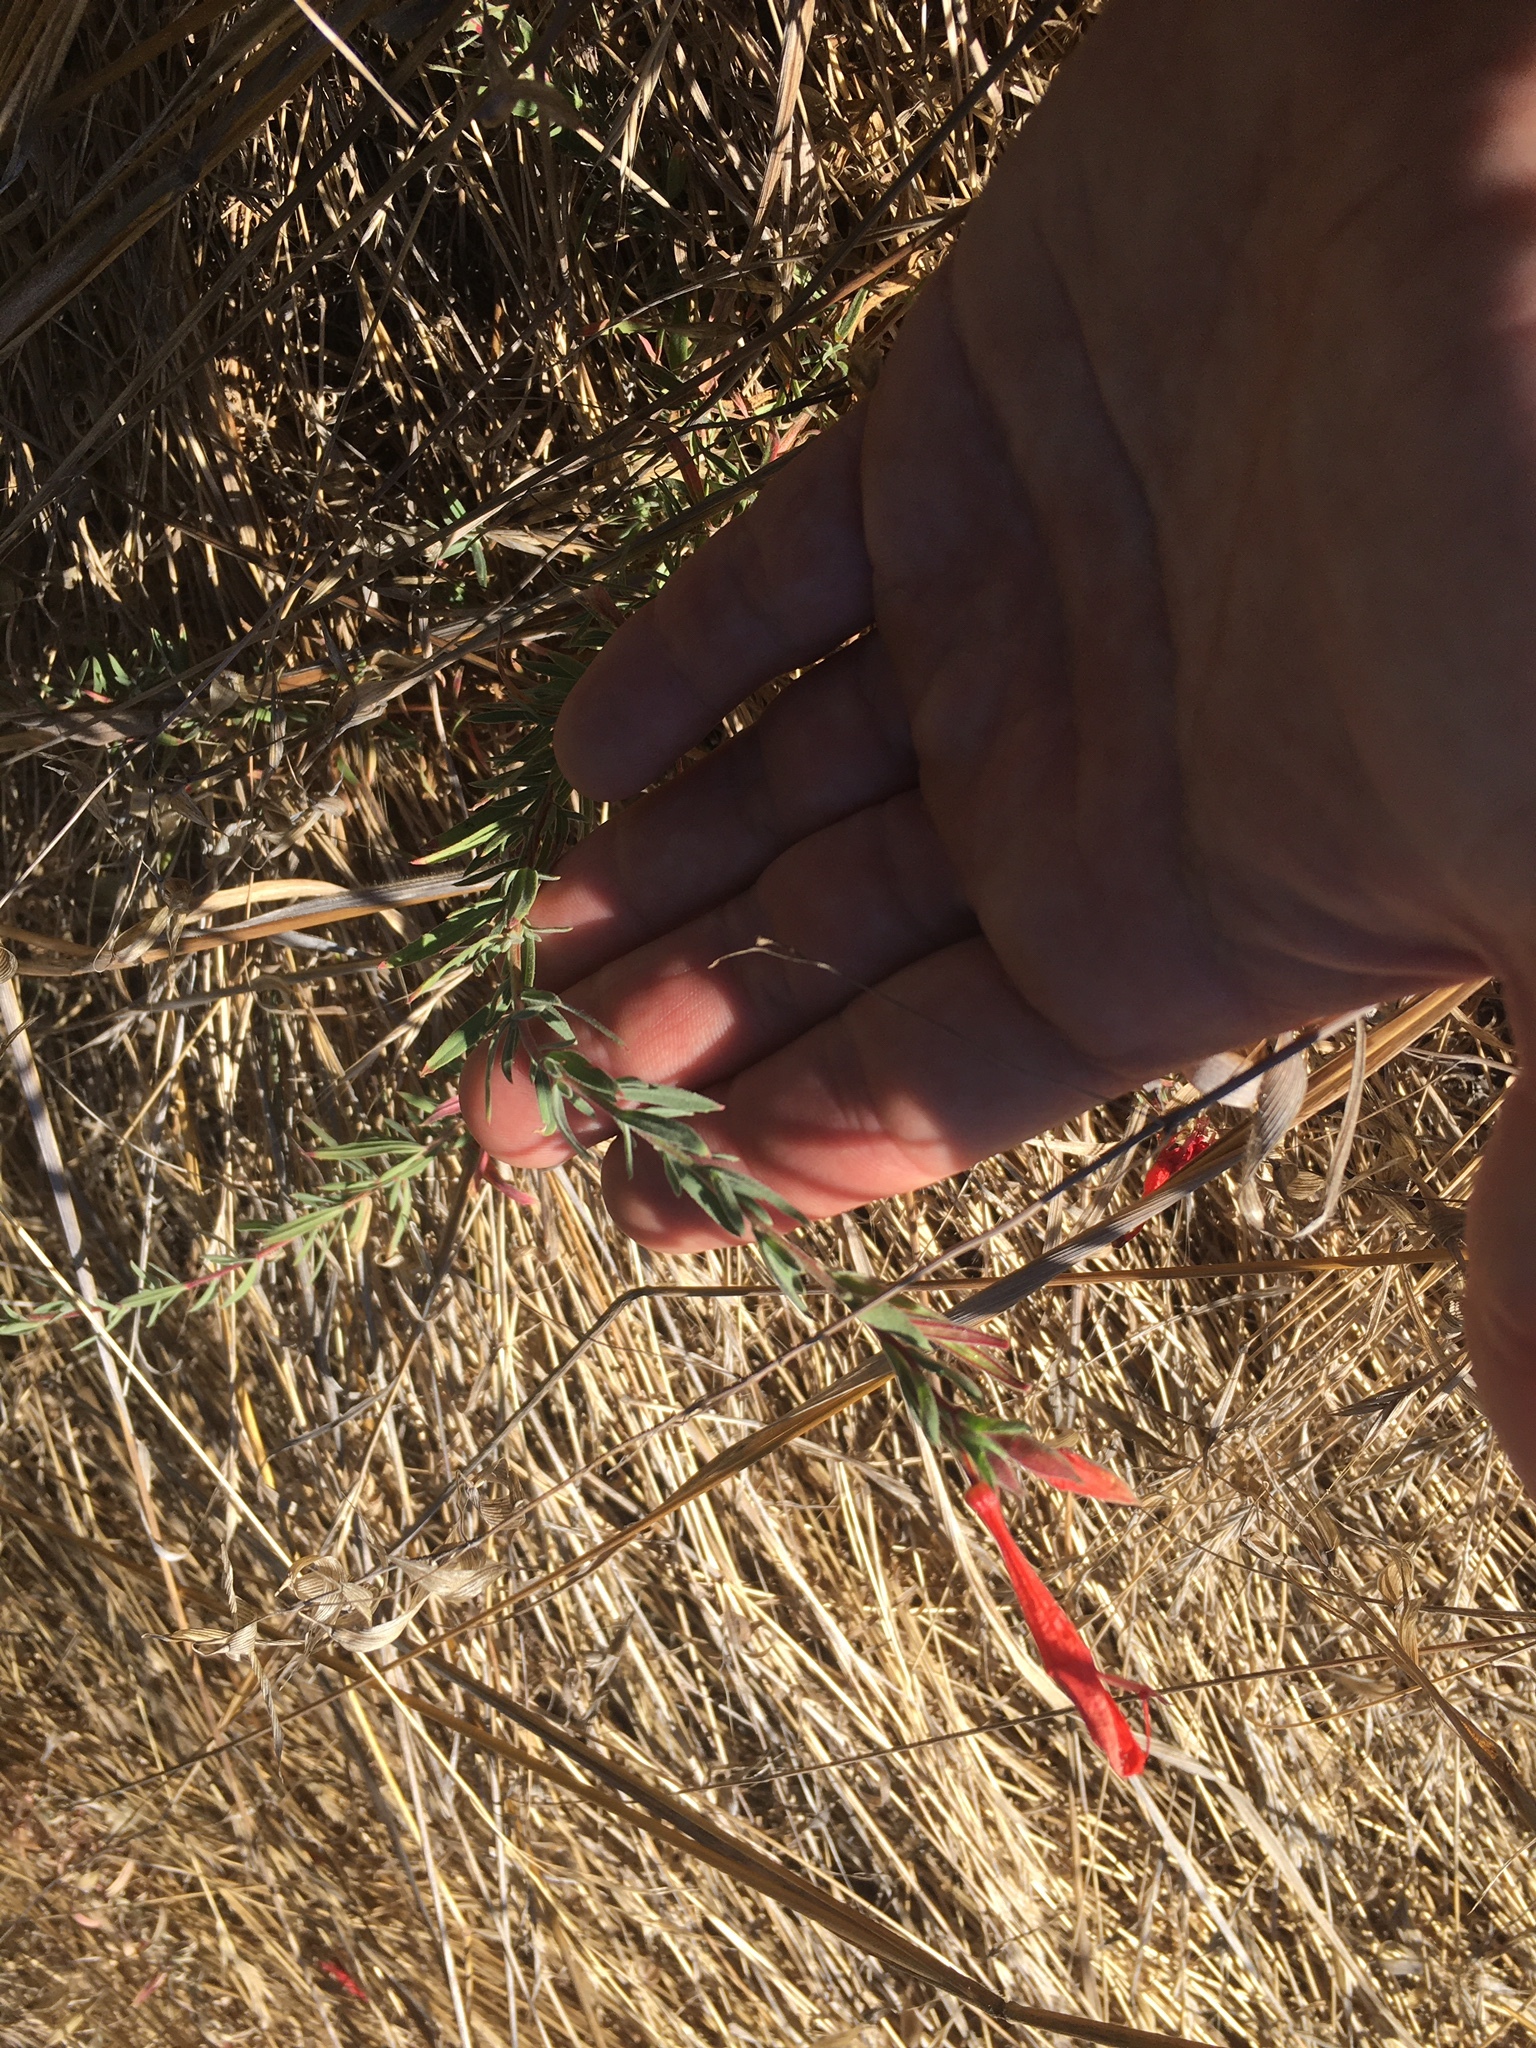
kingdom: Plantae
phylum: Tracheophyta
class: Magnoliopsida
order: Myrtales
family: Onagraceae
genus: Epilobium
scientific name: Epilobium canum
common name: California-fuchsia
